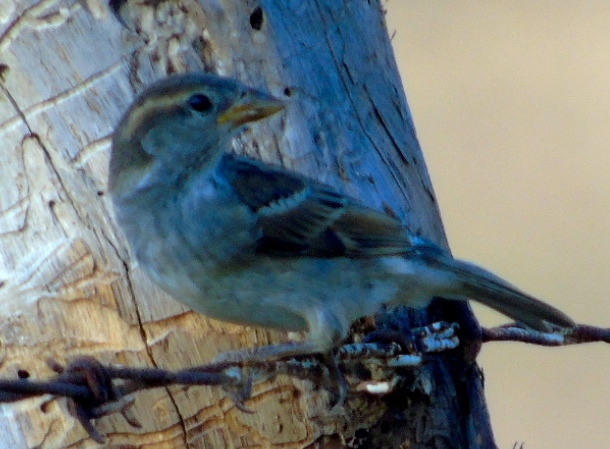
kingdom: Animalia
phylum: Chordata
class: Aves
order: Passeriformes
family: Passeridae
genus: Passer
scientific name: Passer domesticus
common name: House sparrow
